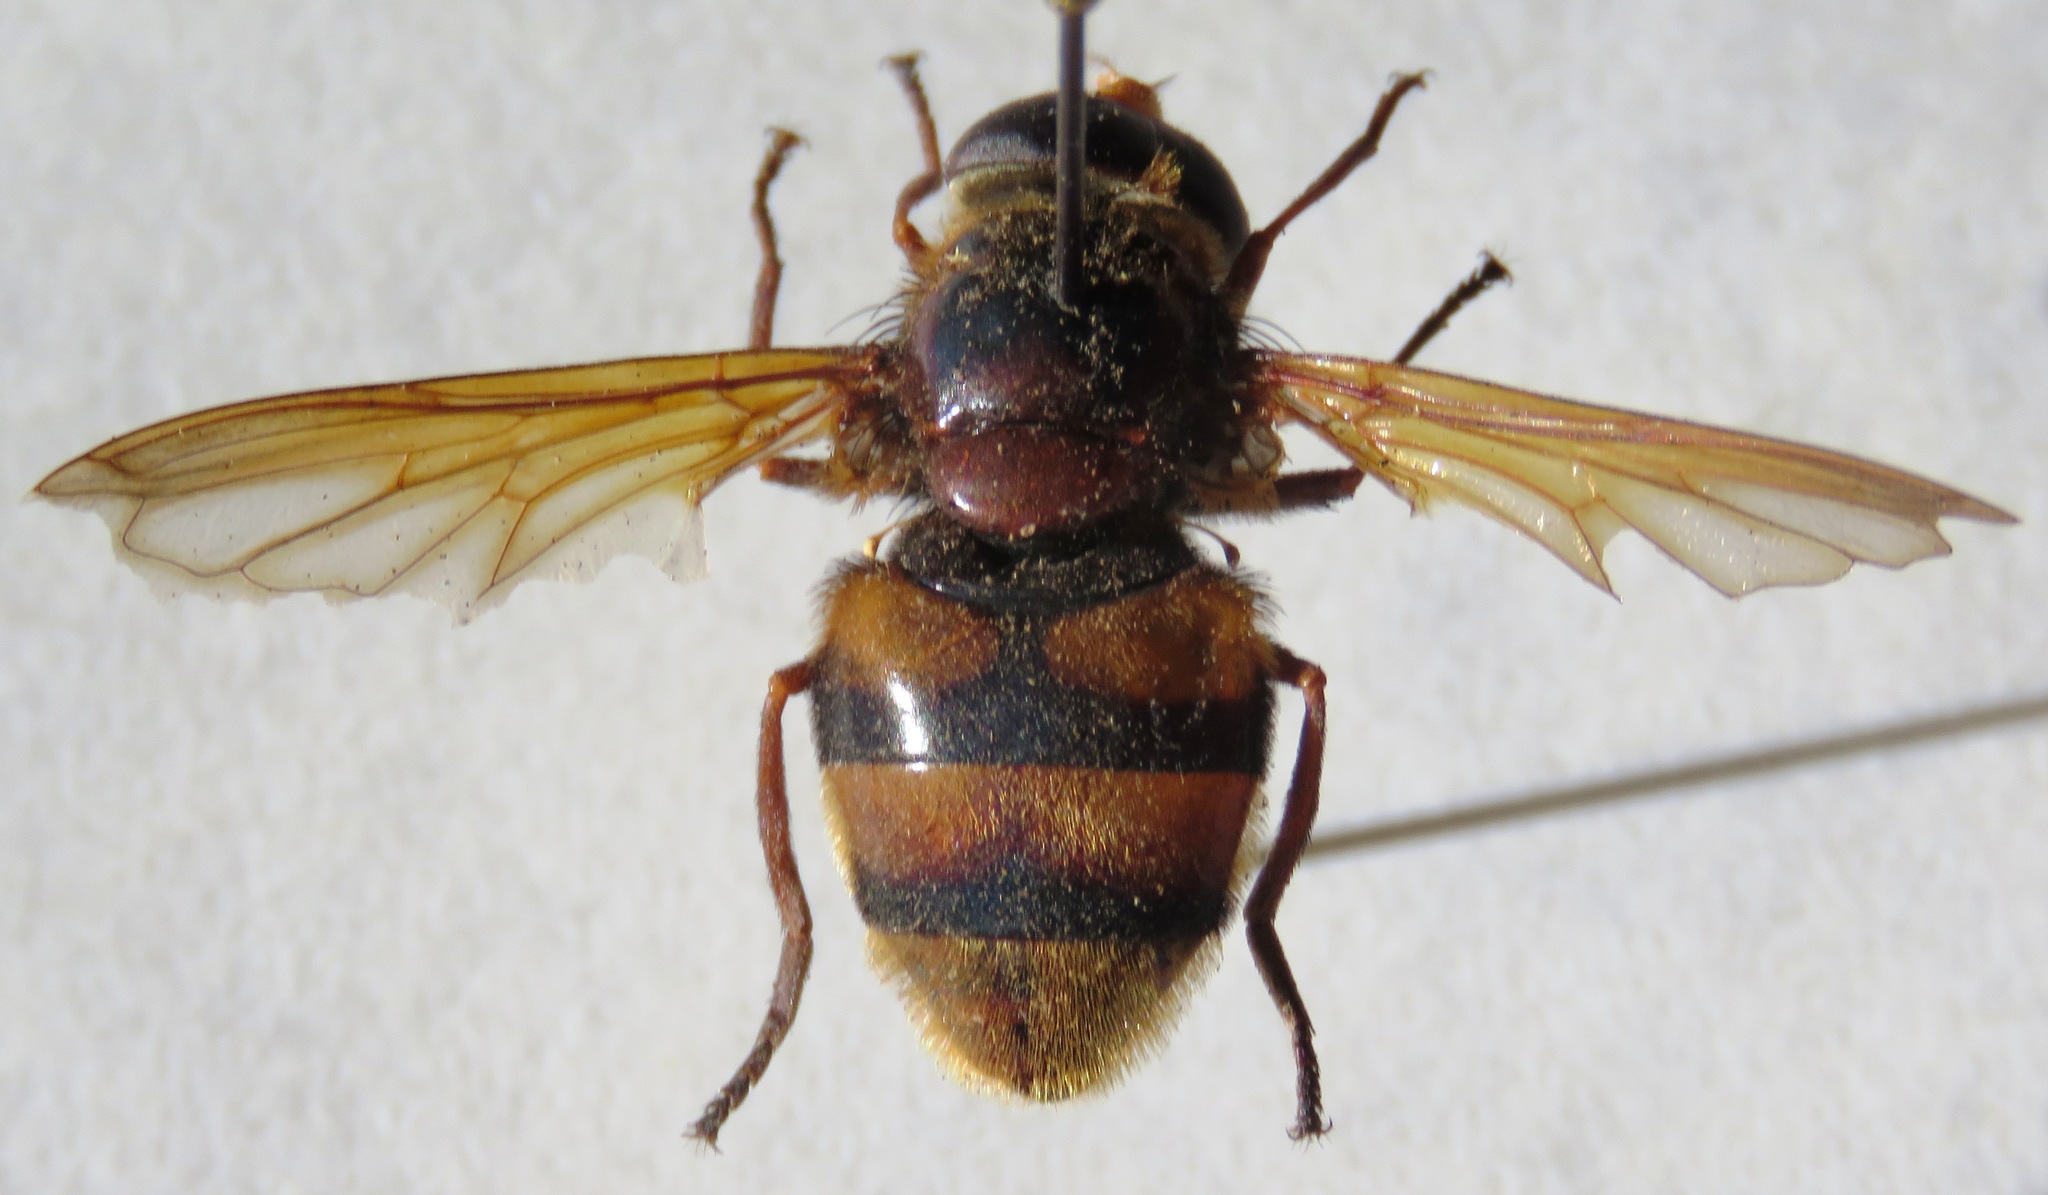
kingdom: Animalia
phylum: Arthropoda
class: Insecta
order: Diptera
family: Syrphidae
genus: Volucella
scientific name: Volucella zonaria
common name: Hornet hoverfly
